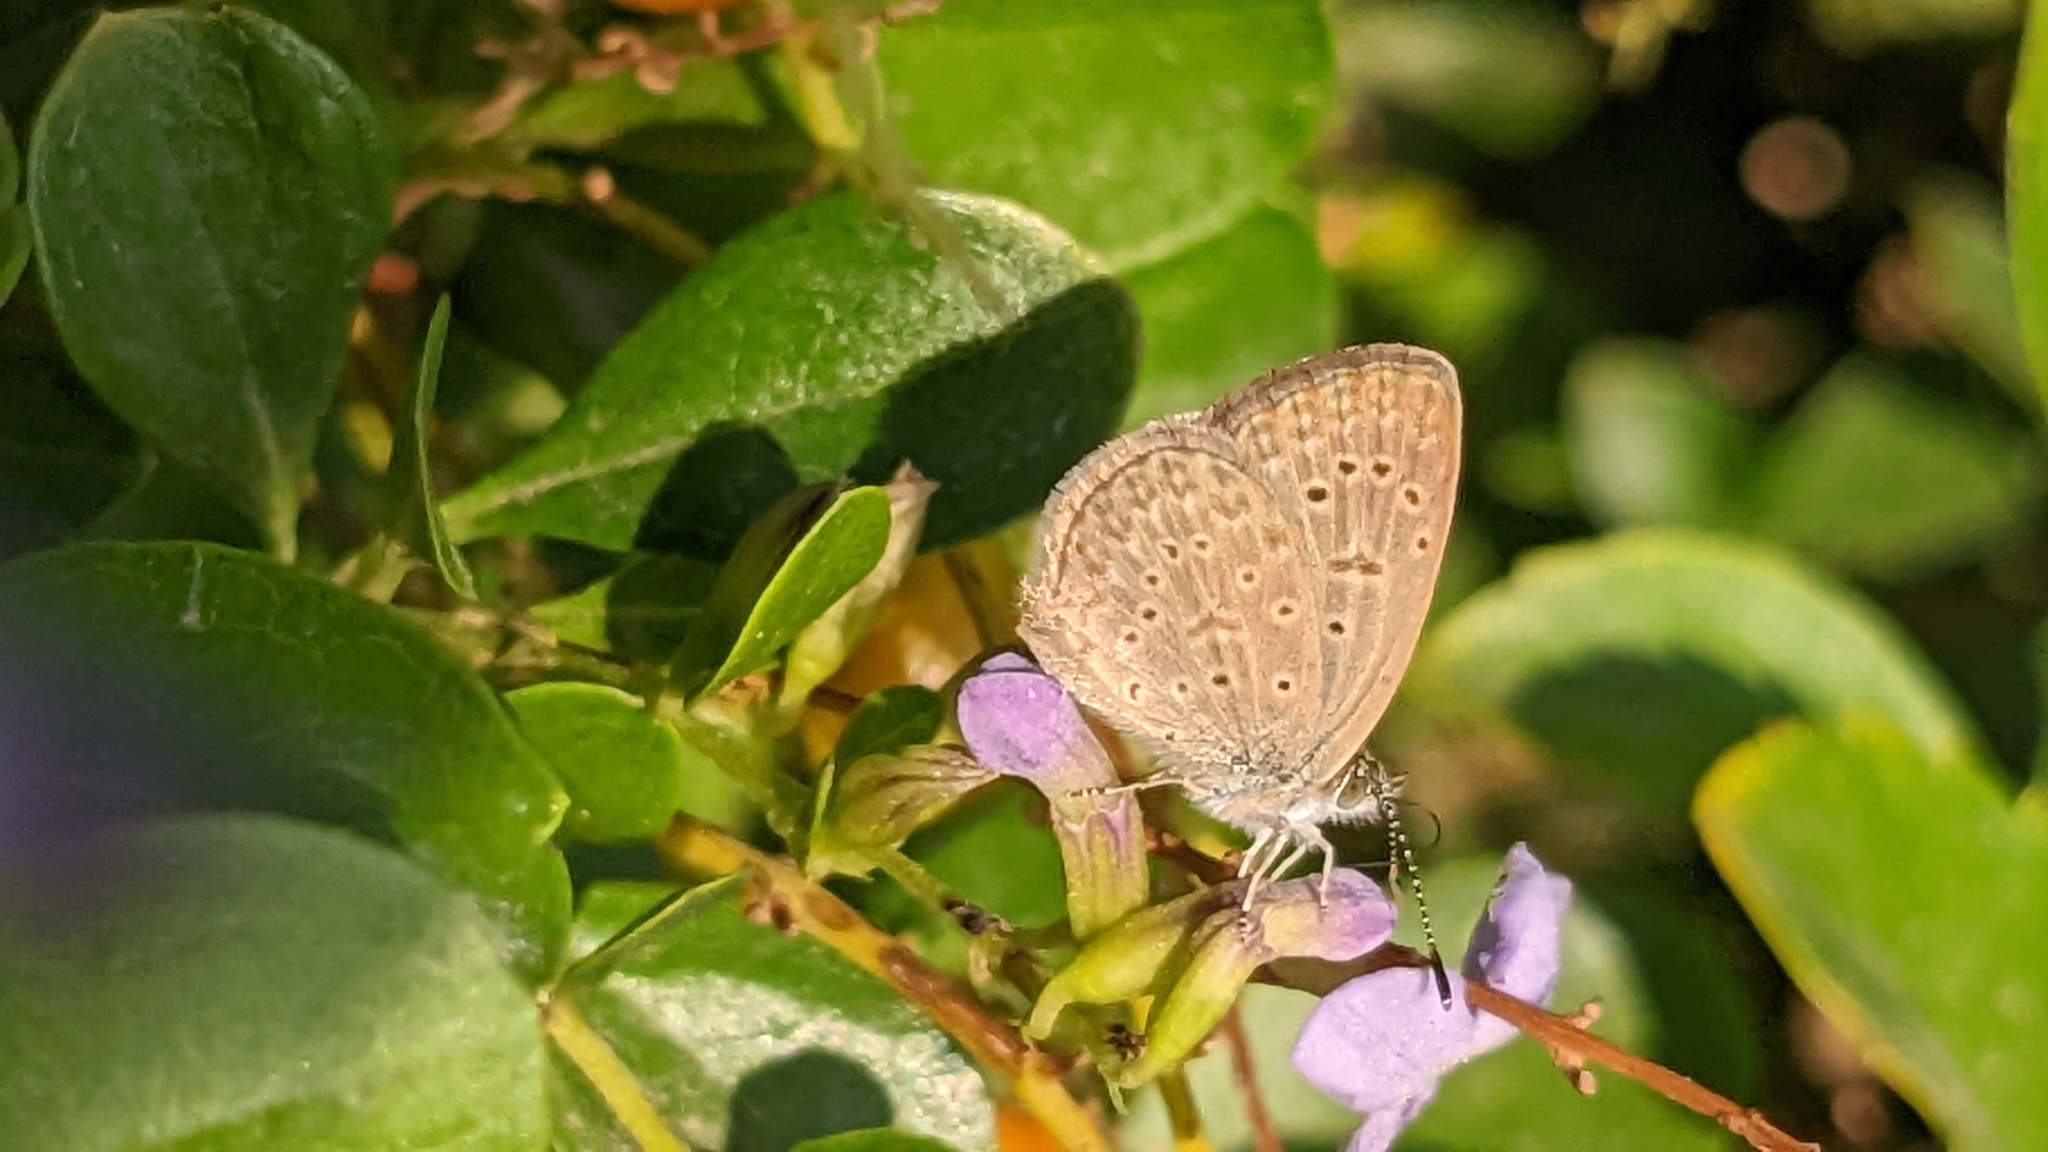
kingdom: Animalia
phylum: Arthropoda
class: Insecta
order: Lepidoptera
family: Lycaenidae
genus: Zizeeria
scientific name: Zizeeria knysna
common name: African grass blue
